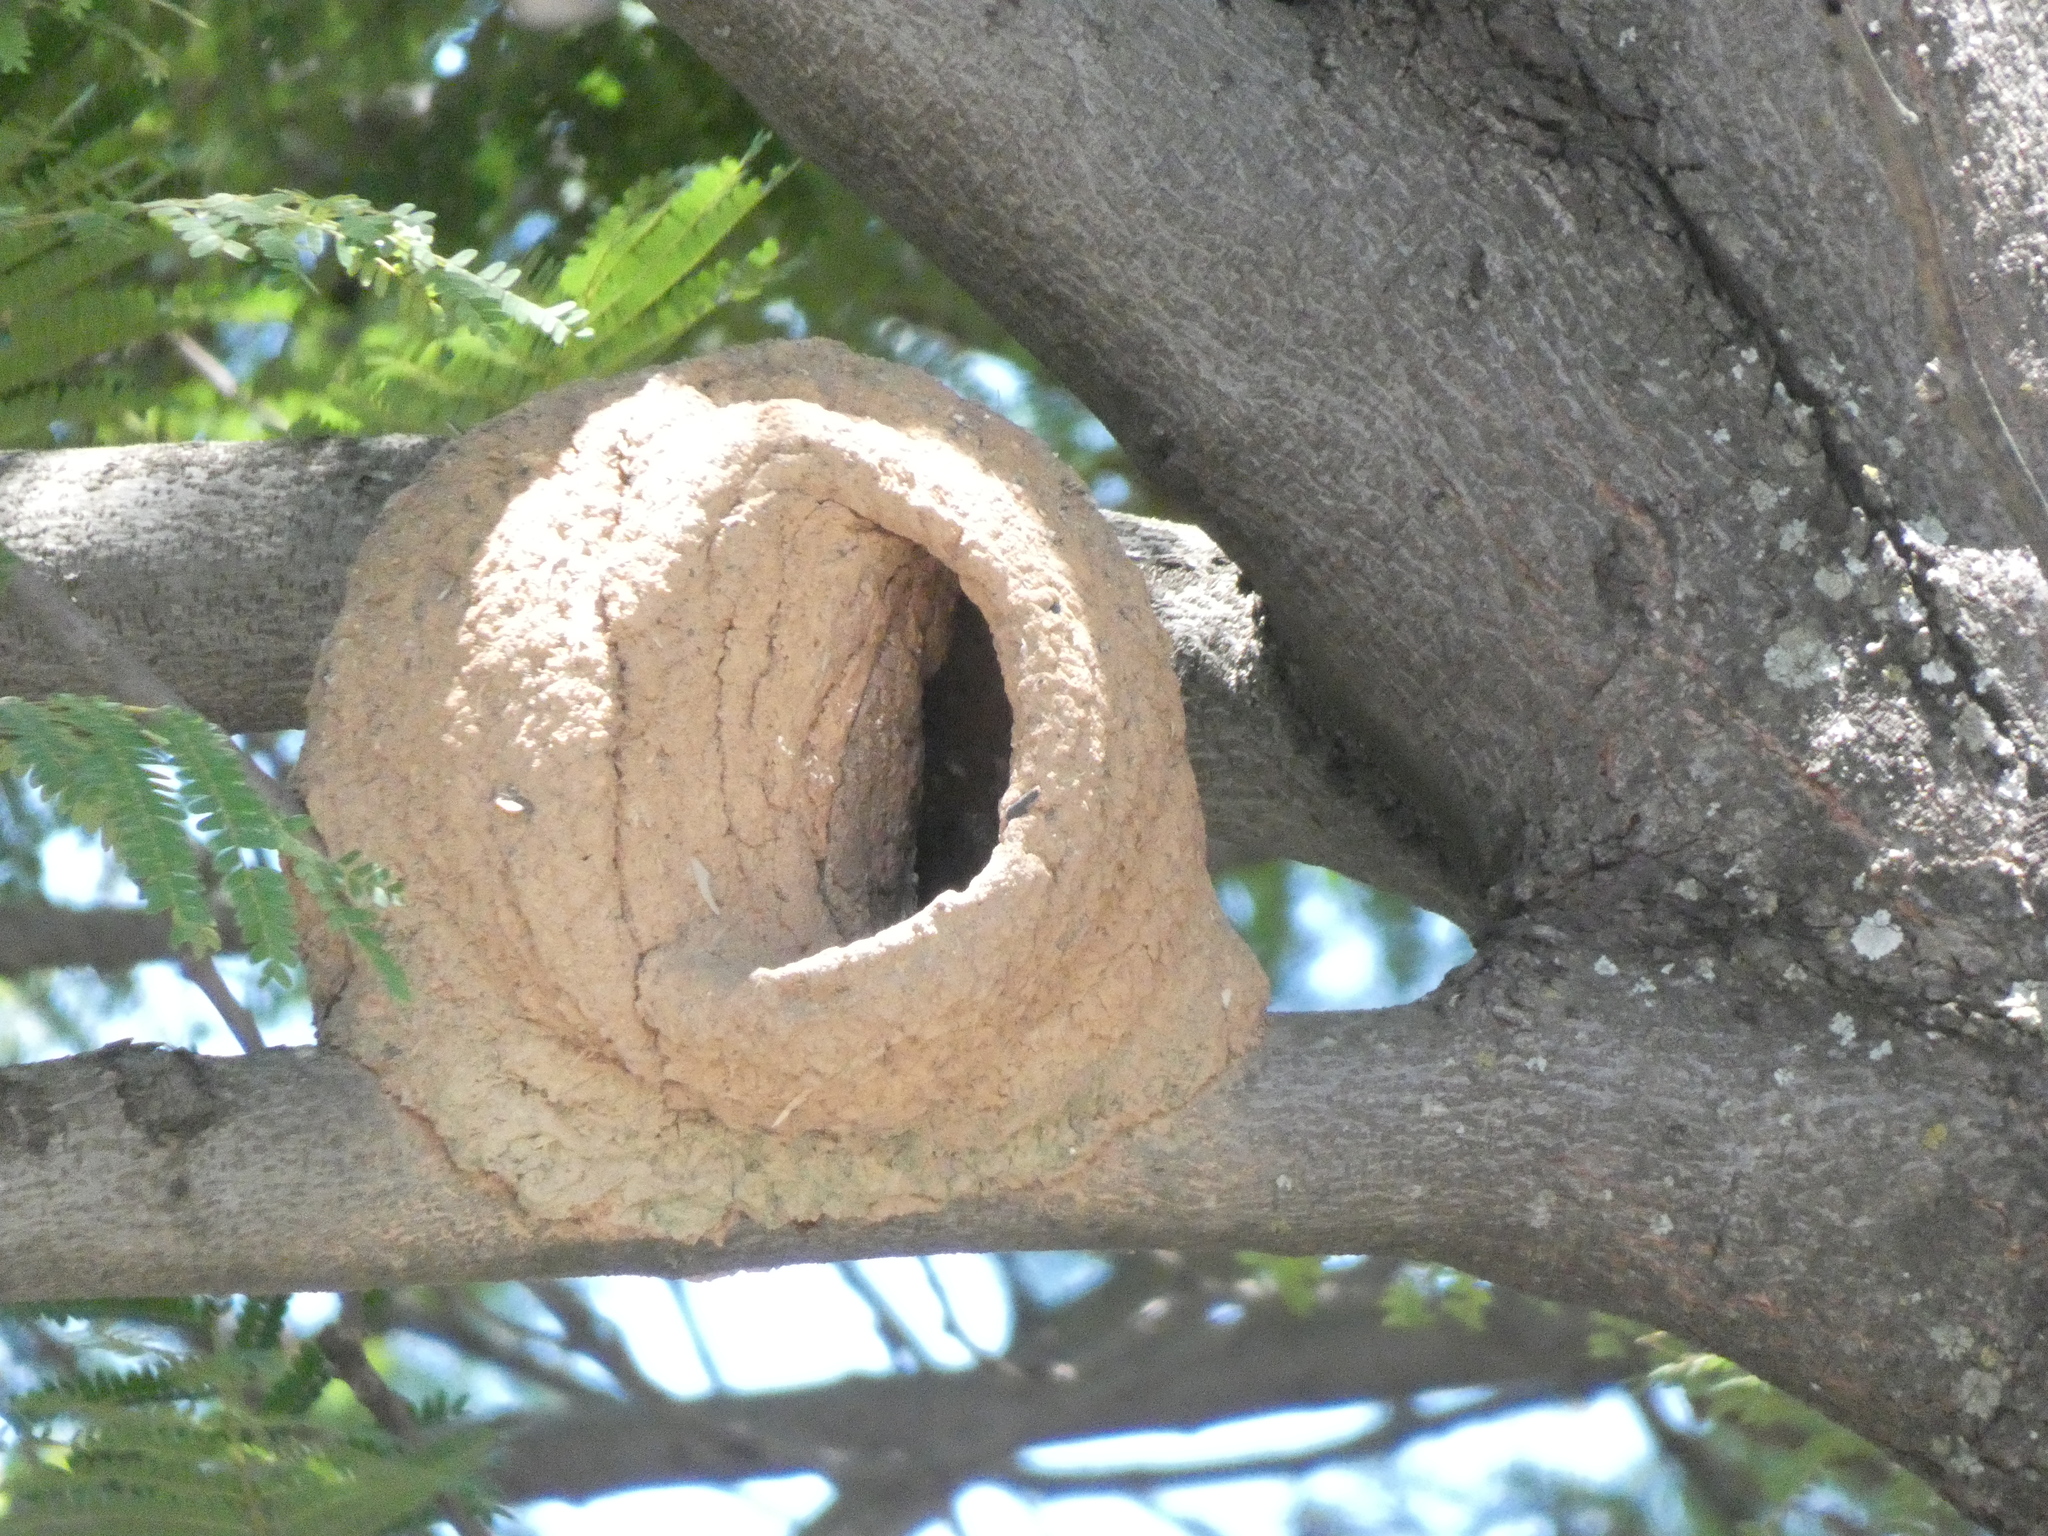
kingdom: Animalia
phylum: Chordata
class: Aves
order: Passeriformes
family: Furnariidae
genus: Furnarius
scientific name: Furnarius rufus
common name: Rufous hornero
